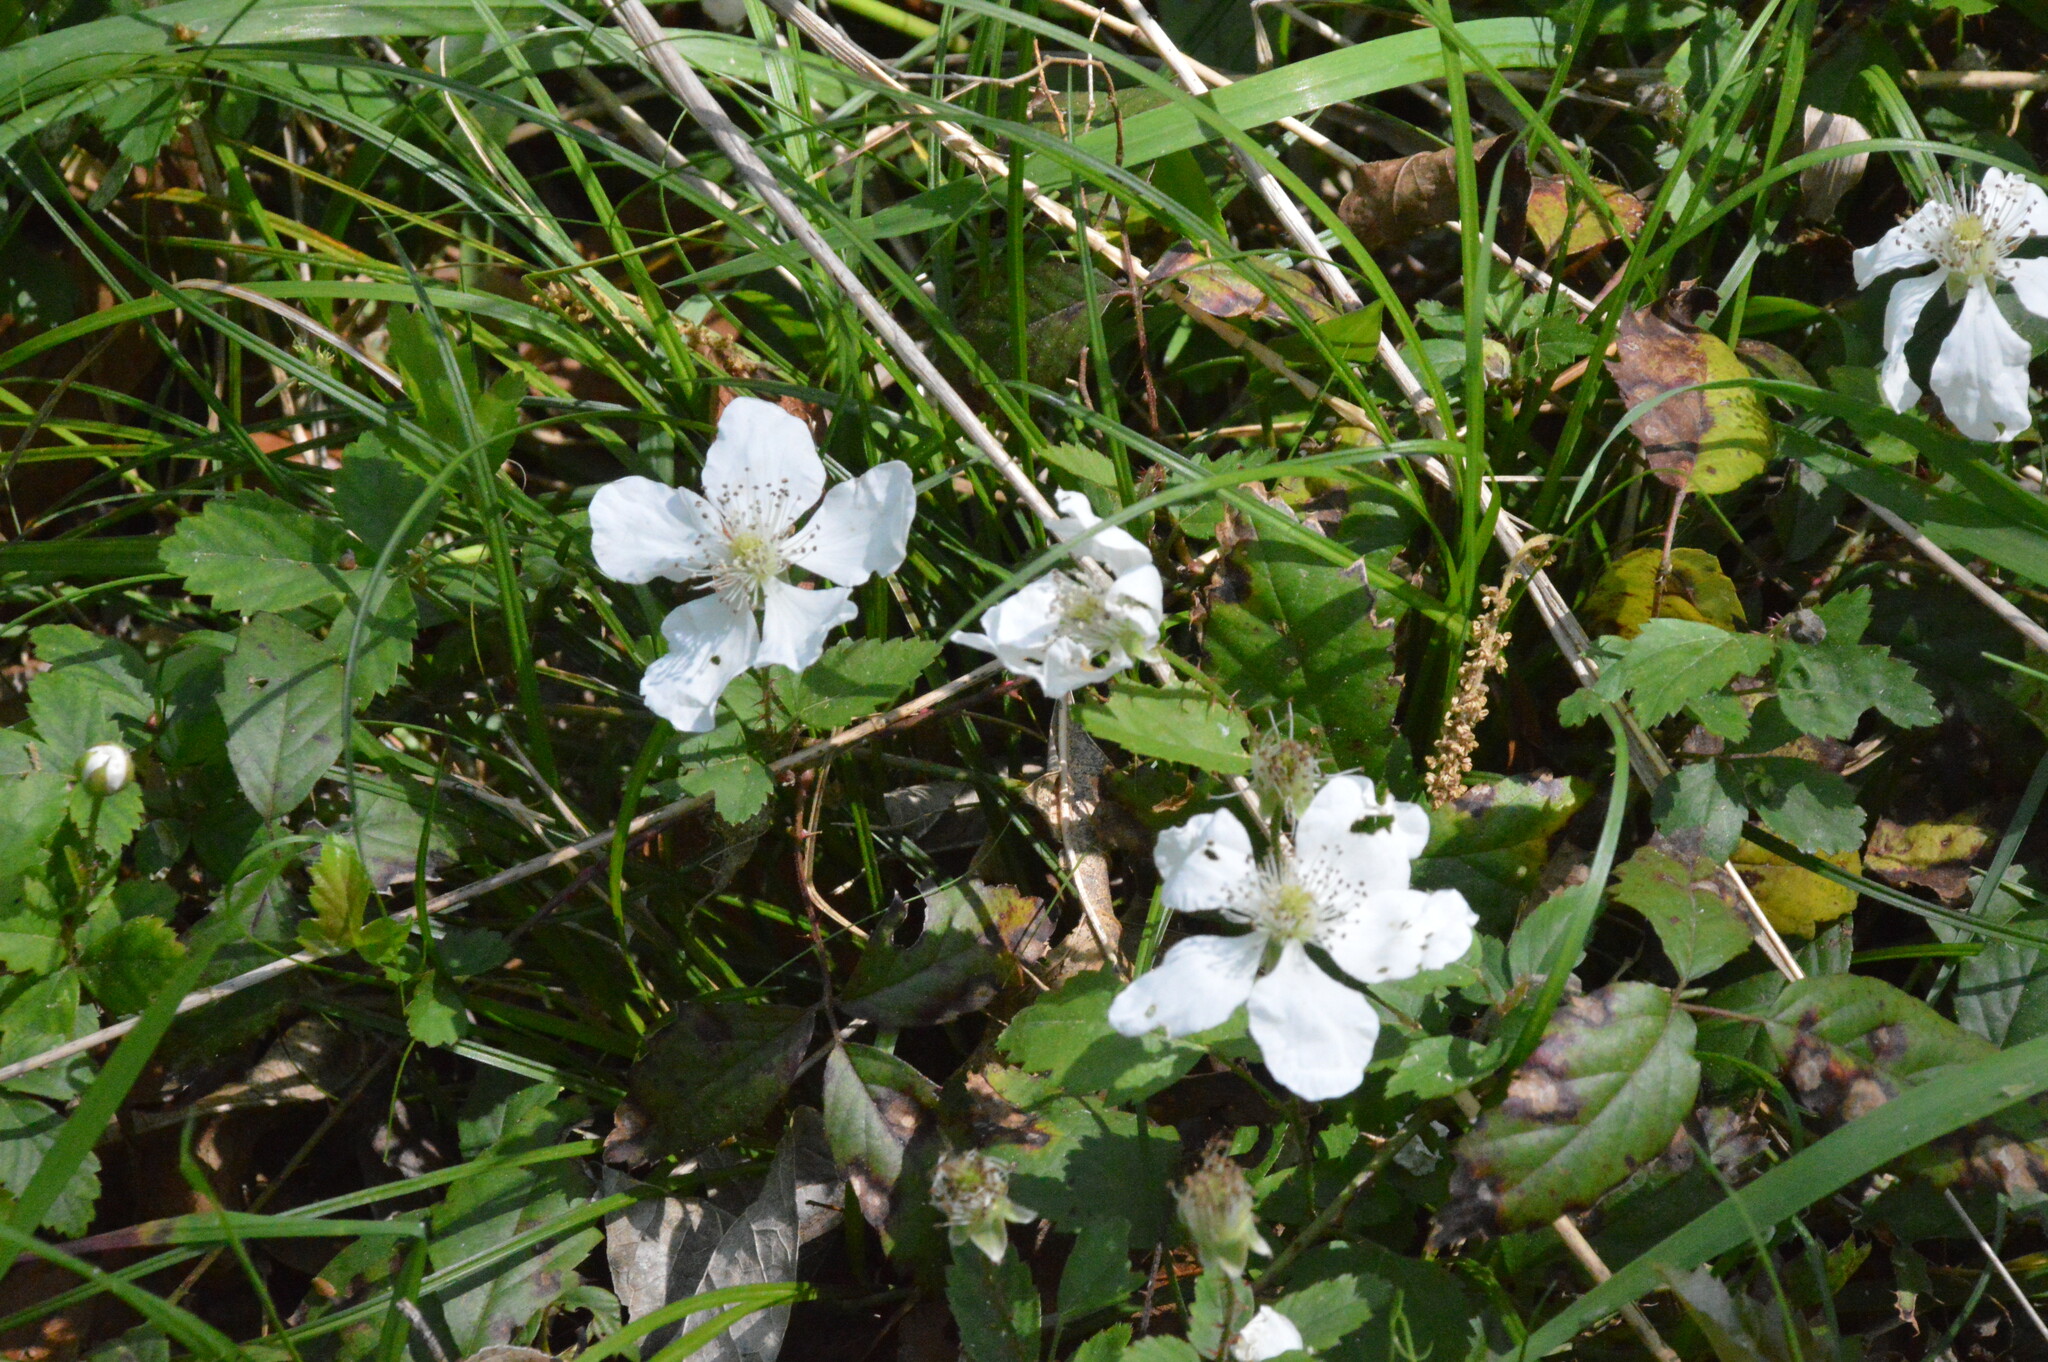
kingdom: Plantae
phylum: Tracheophyta
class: Magnoliopsida
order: Rosales
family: Rosaceae
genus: Rubus
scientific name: Rubus trivialis
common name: Southern dewberry
